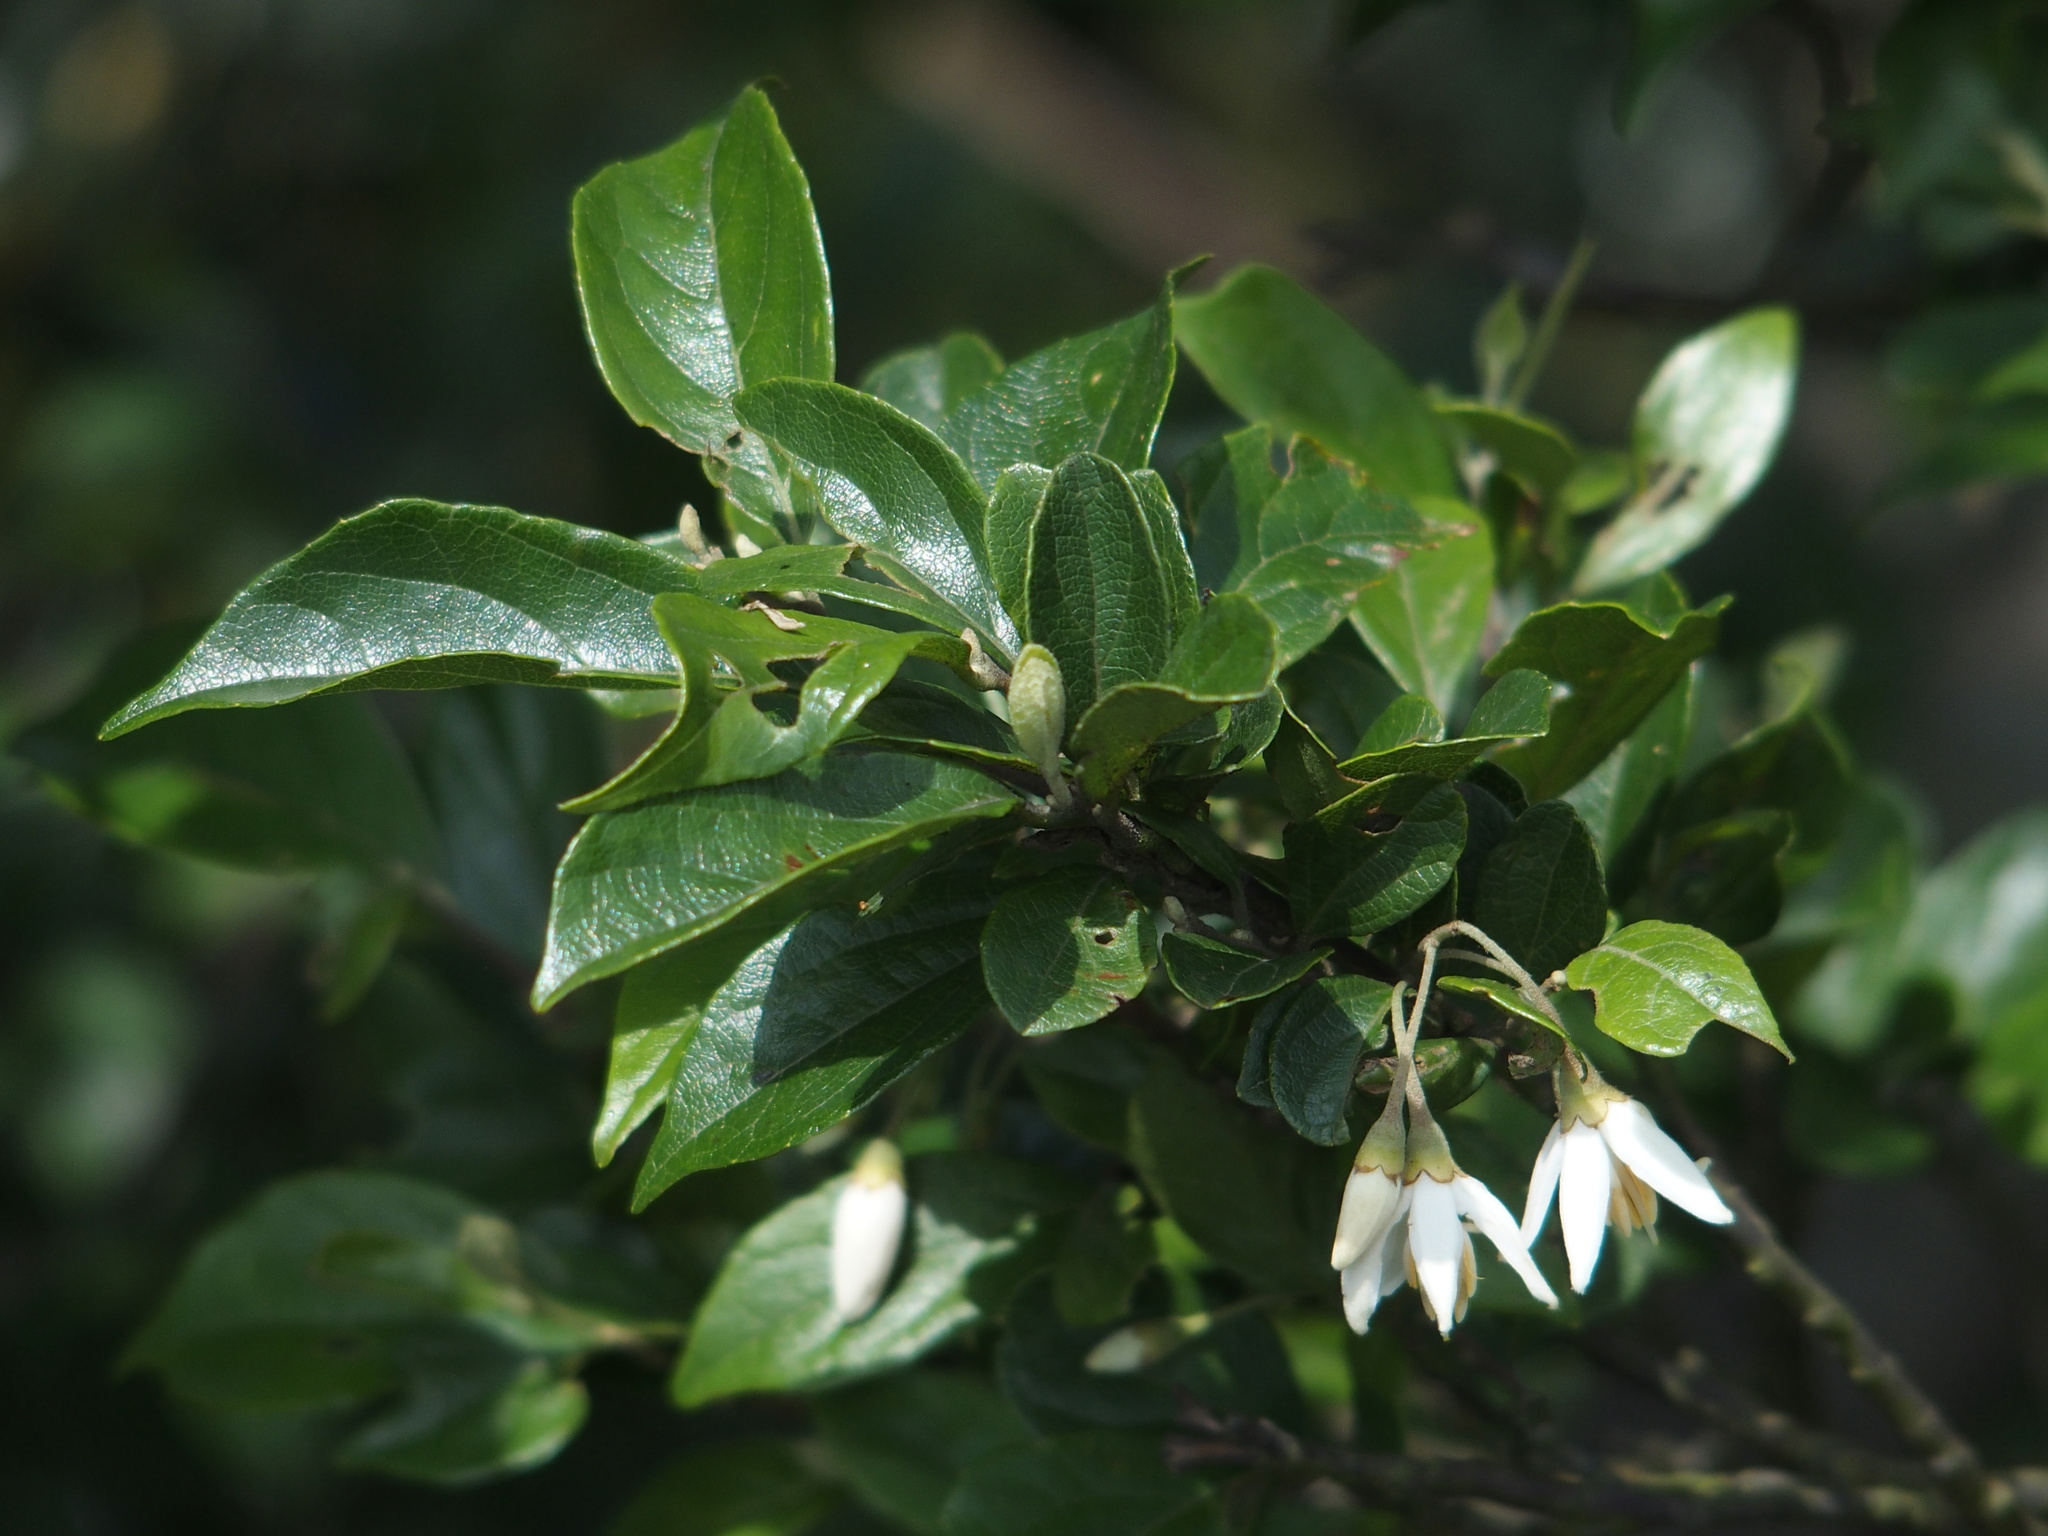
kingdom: Plantae
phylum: Tracheophyta
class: Magnoliopsida
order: Ericales
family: Styracaceae
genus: Styrax
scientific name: Styrax formosanus
